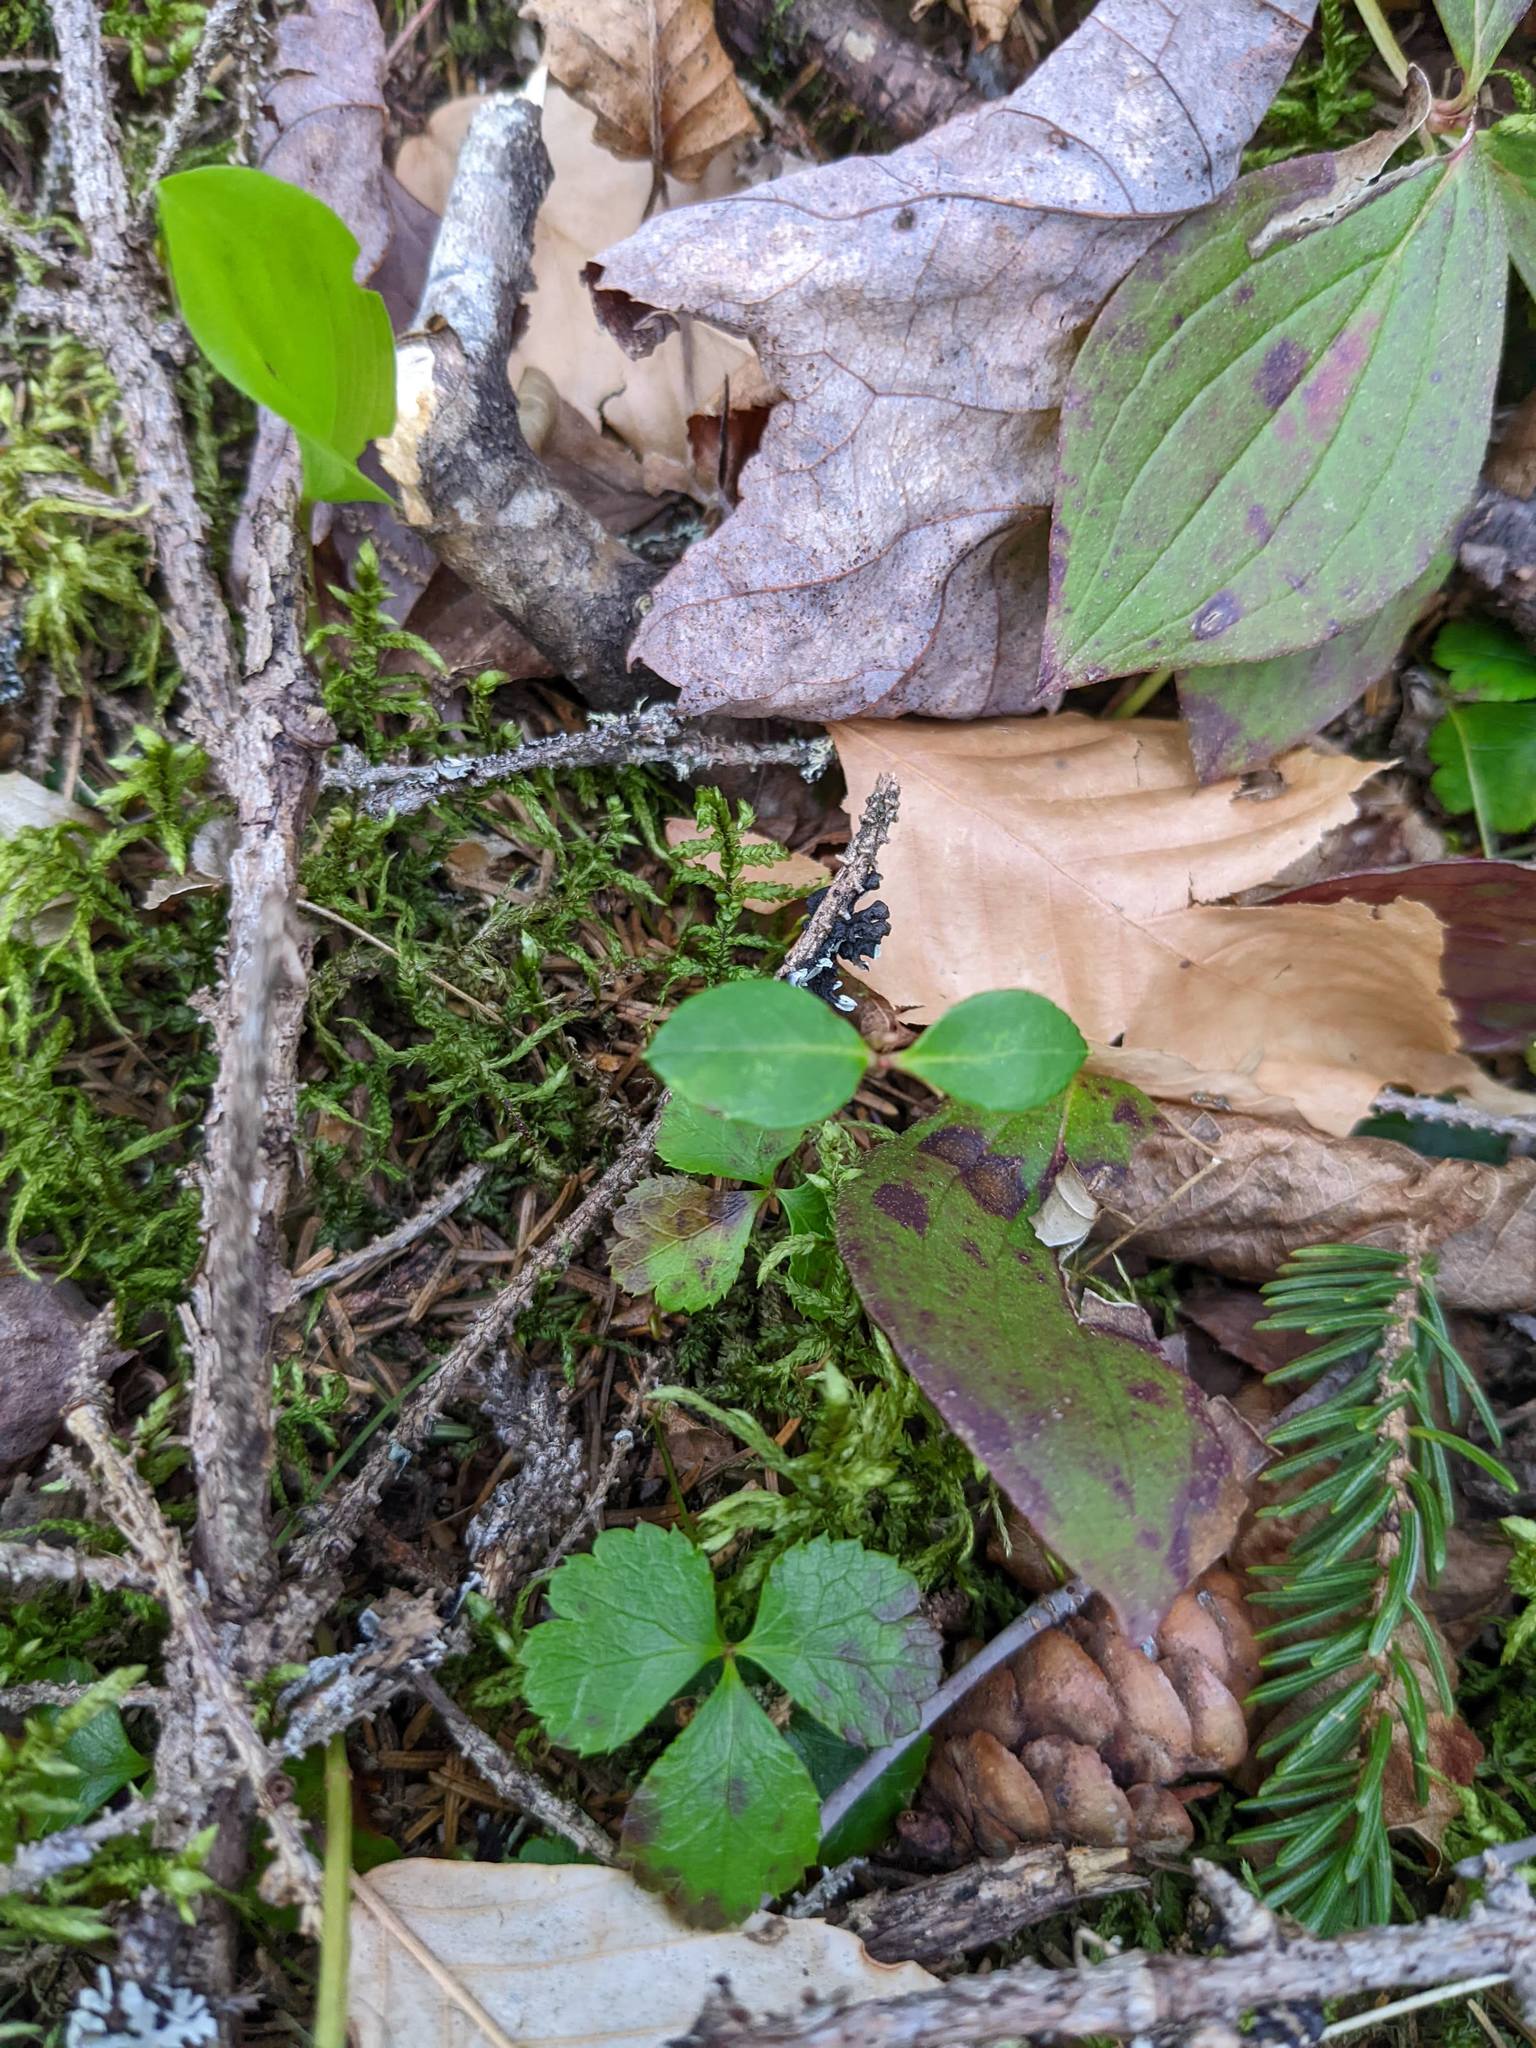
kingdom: Plantae
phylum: Tracheophyta
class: Magnoliopsida
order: Ranunculales
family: Ranunculaceae
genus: Coptis
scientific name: Coptis trifolia
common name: Canker-root
